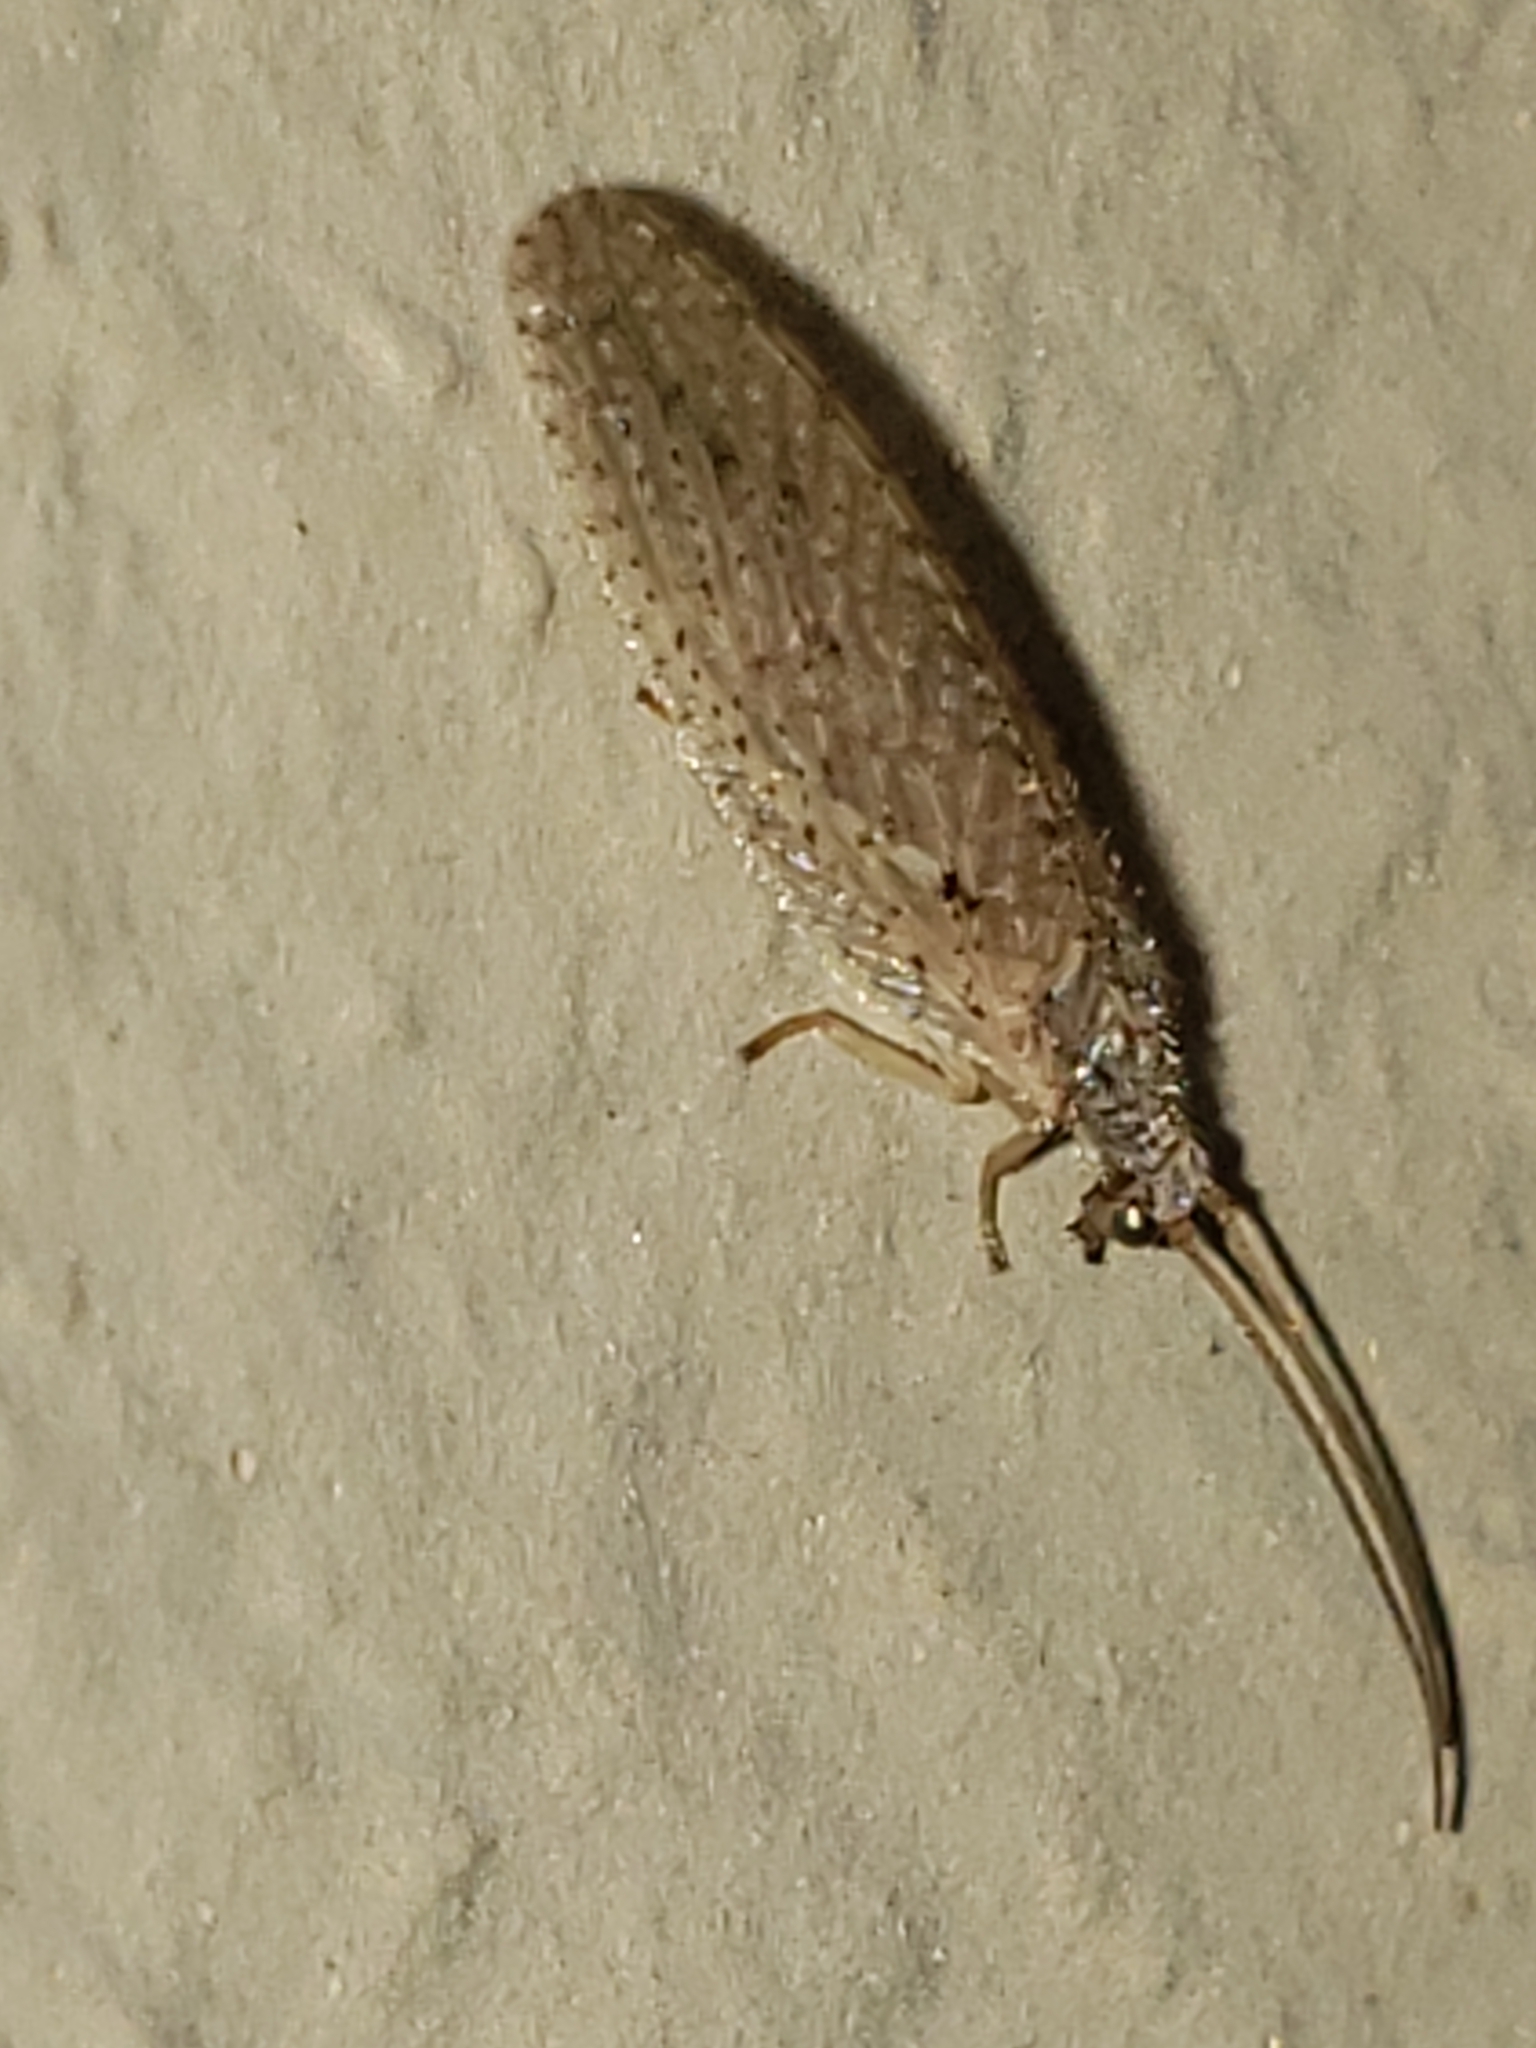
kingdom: Animalia
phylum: Arthropoda
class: Insecta
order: Neuroptera
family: Hemerobiidae
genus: Micromus
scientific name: Micromus subanticus
